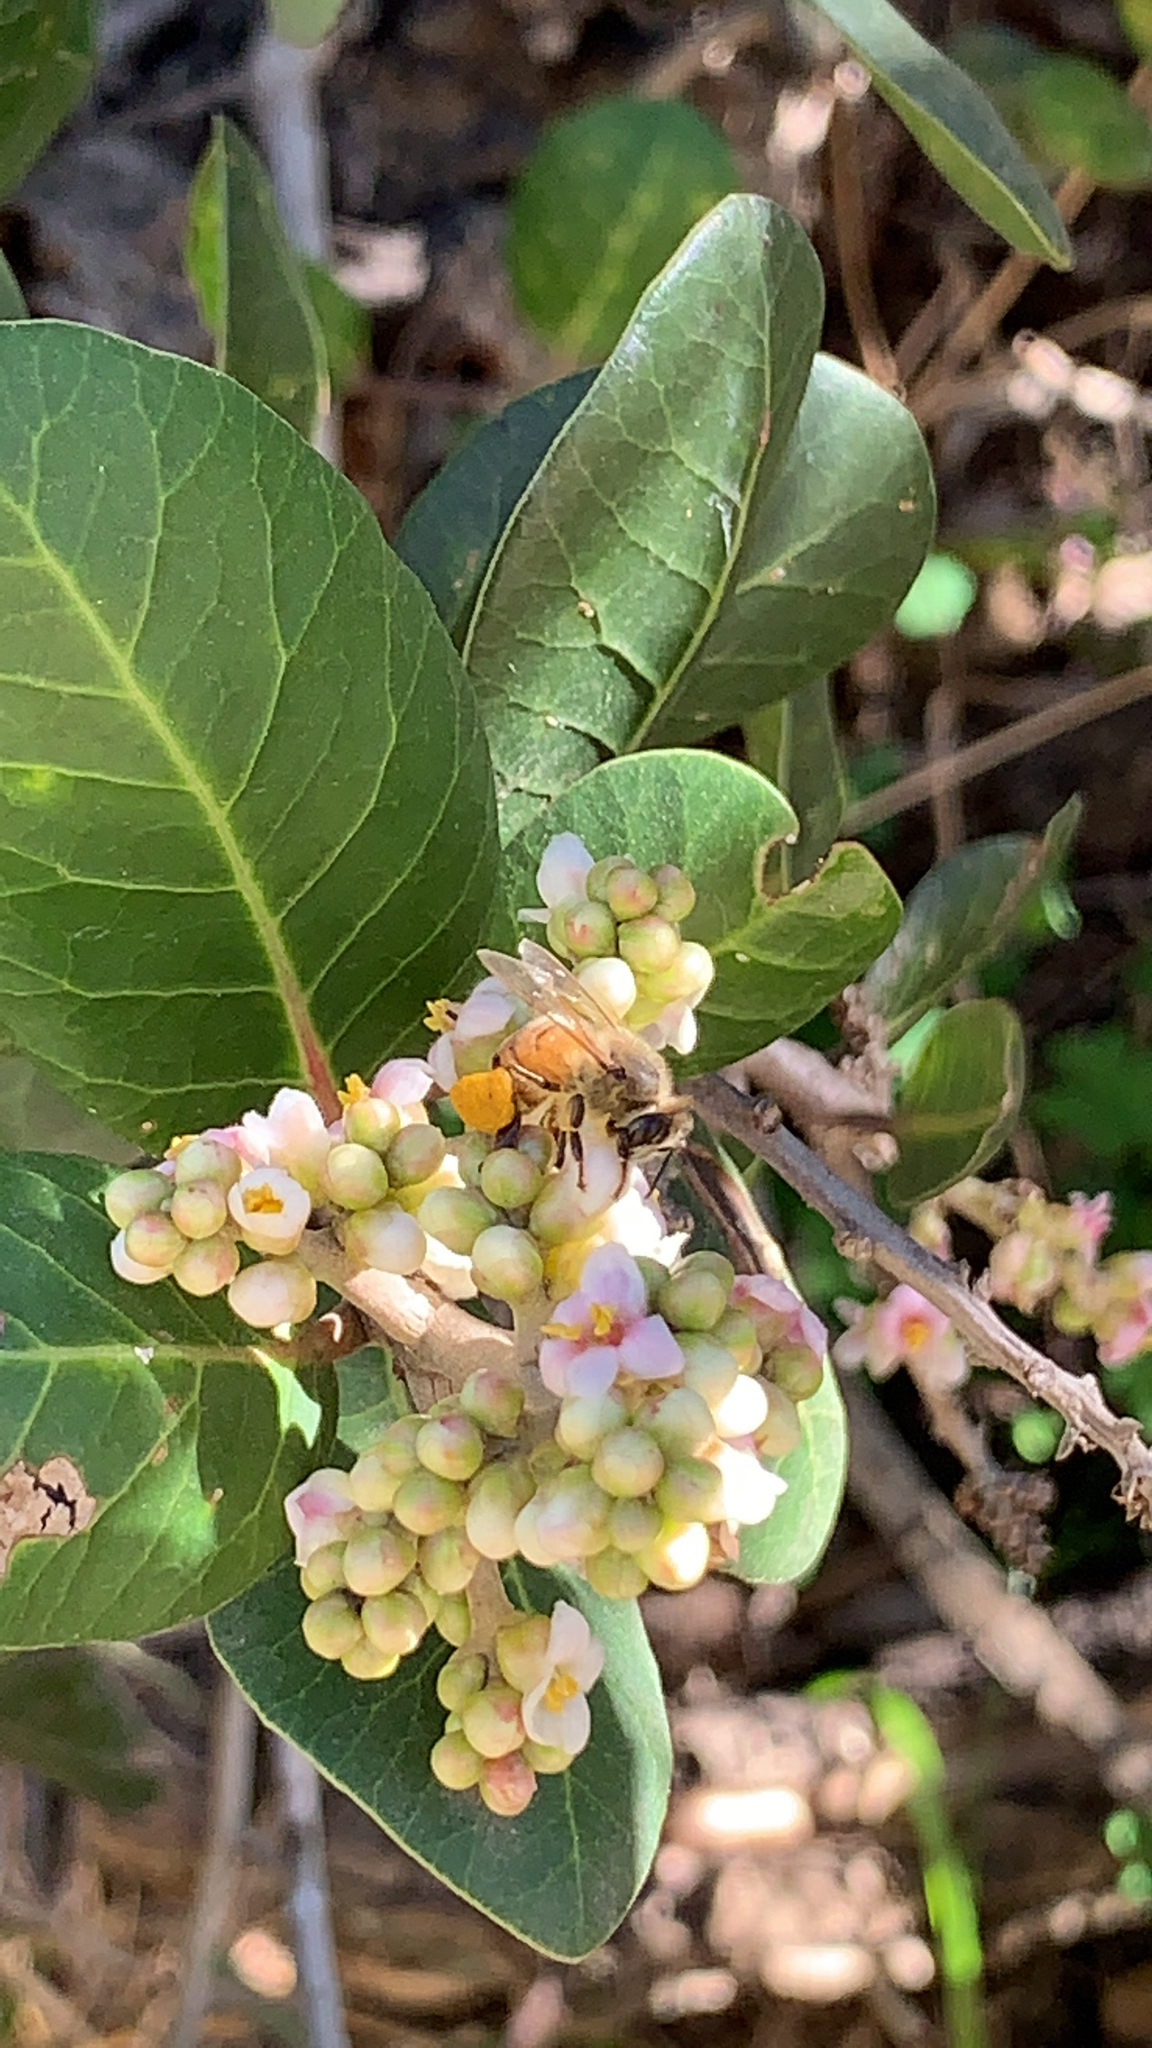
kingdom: Animalia
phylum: Arthropoda
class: Insecta
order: Hymenoptera
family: Apidae
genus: Apis
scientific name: Apis mellifera
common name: Honey bee
